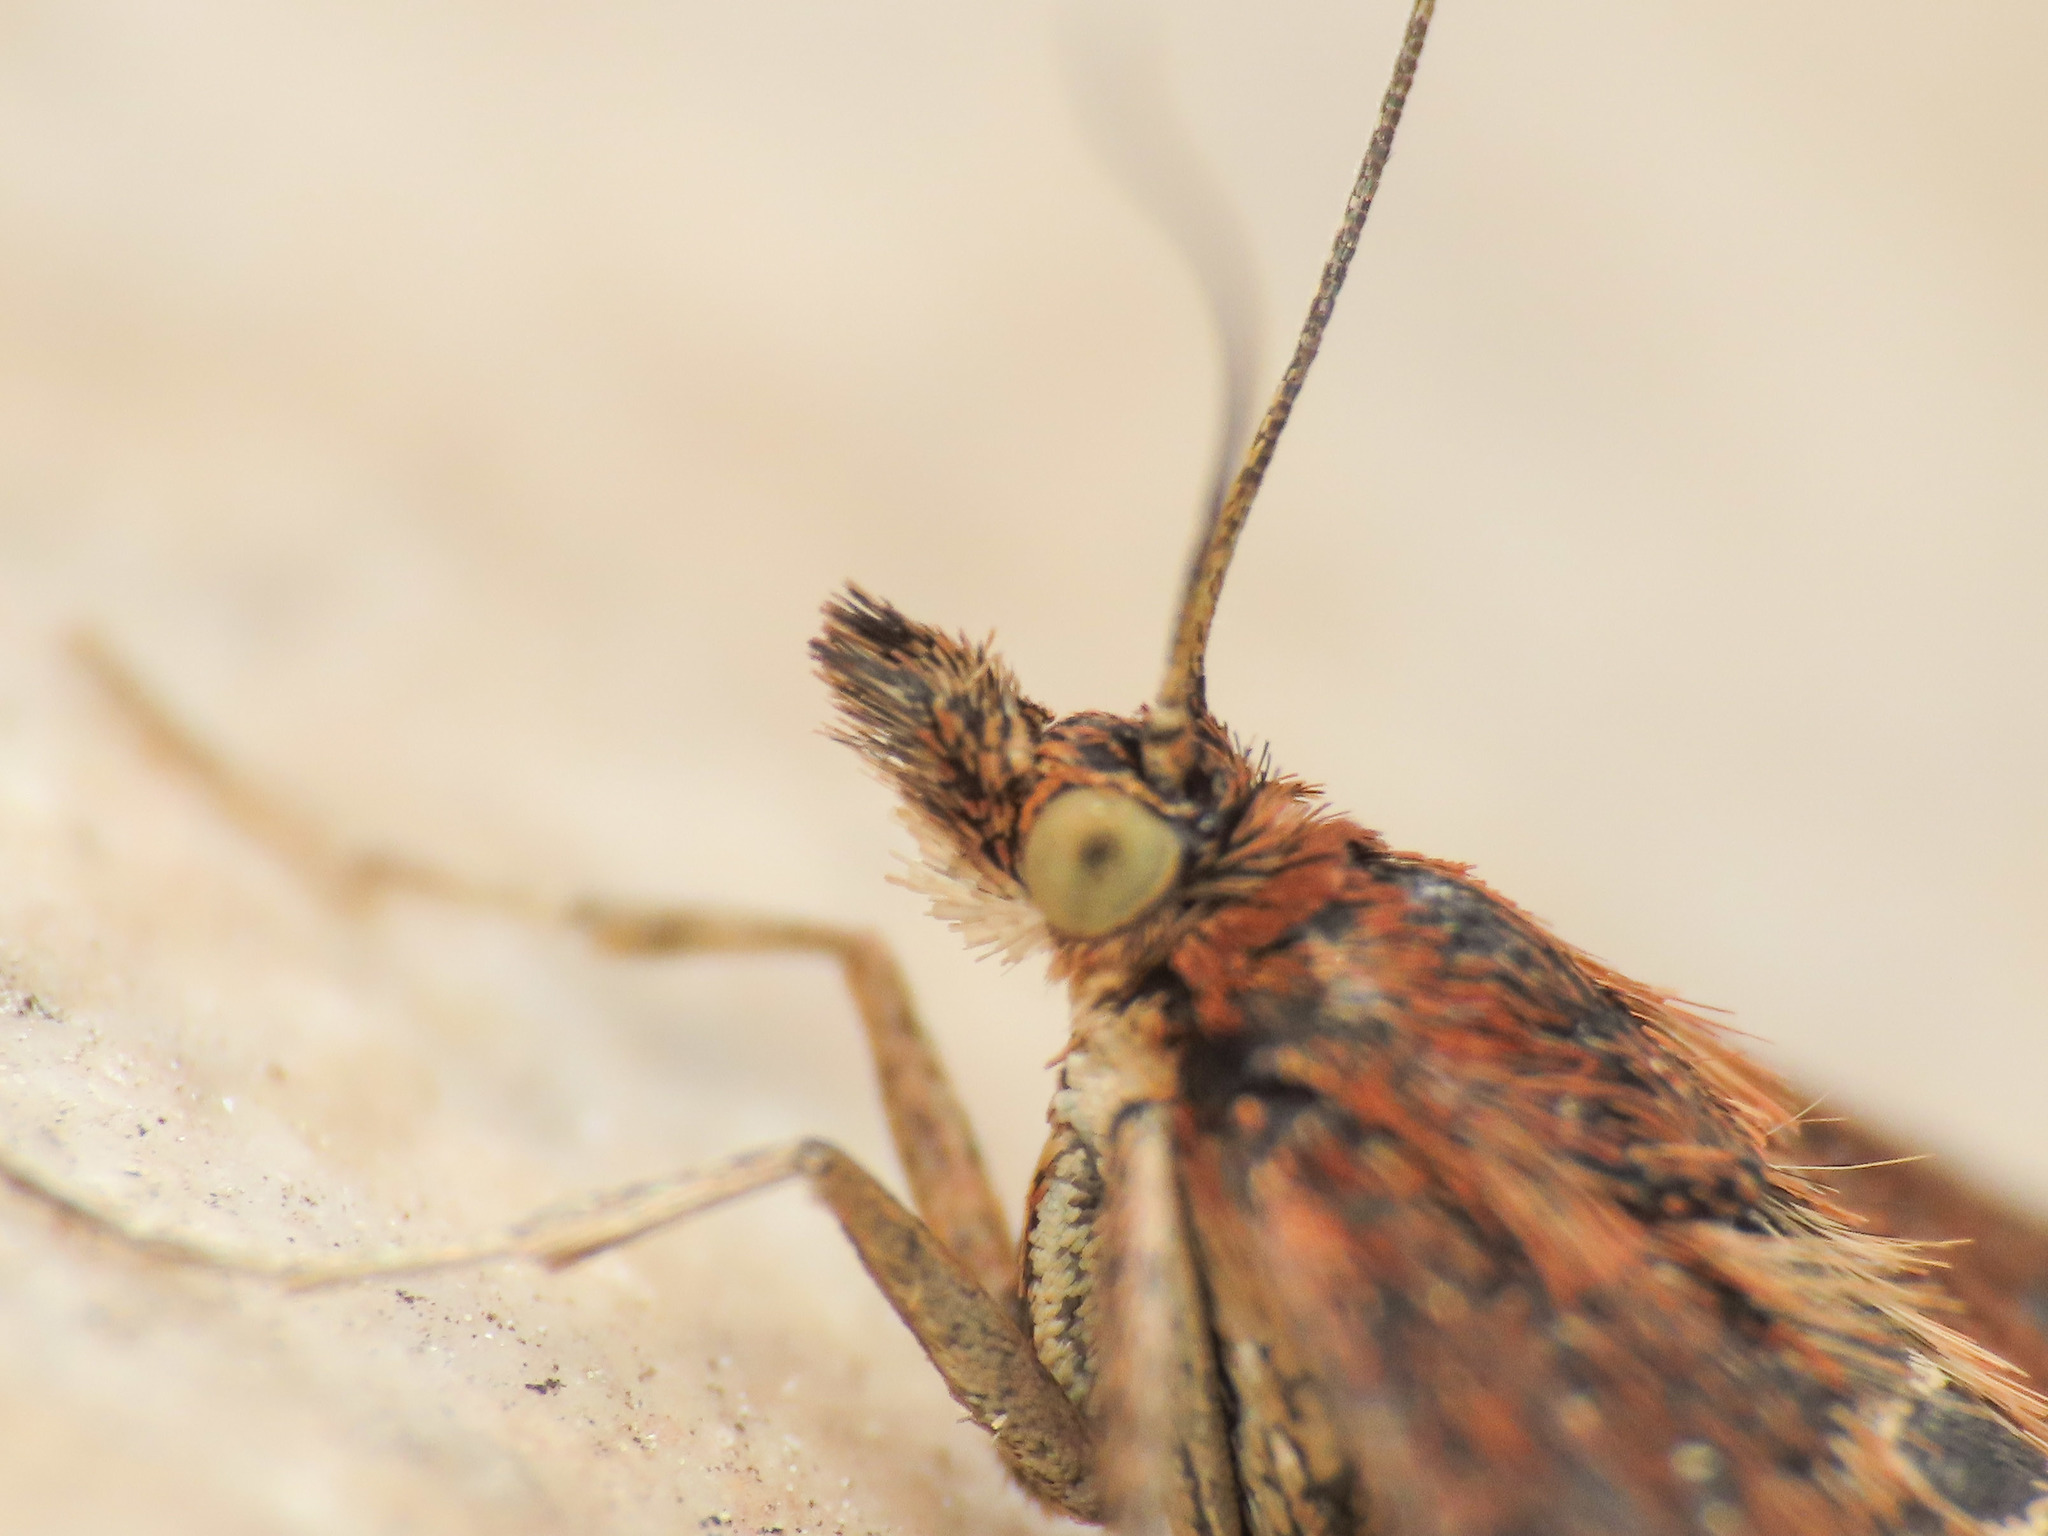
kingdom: Animalia
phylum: Arthropoda
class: Insecta
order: Lepidoptera
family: Crambidae
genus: Pyrausta
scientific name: Pyrausta despicata
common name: Straw-barred pearl
